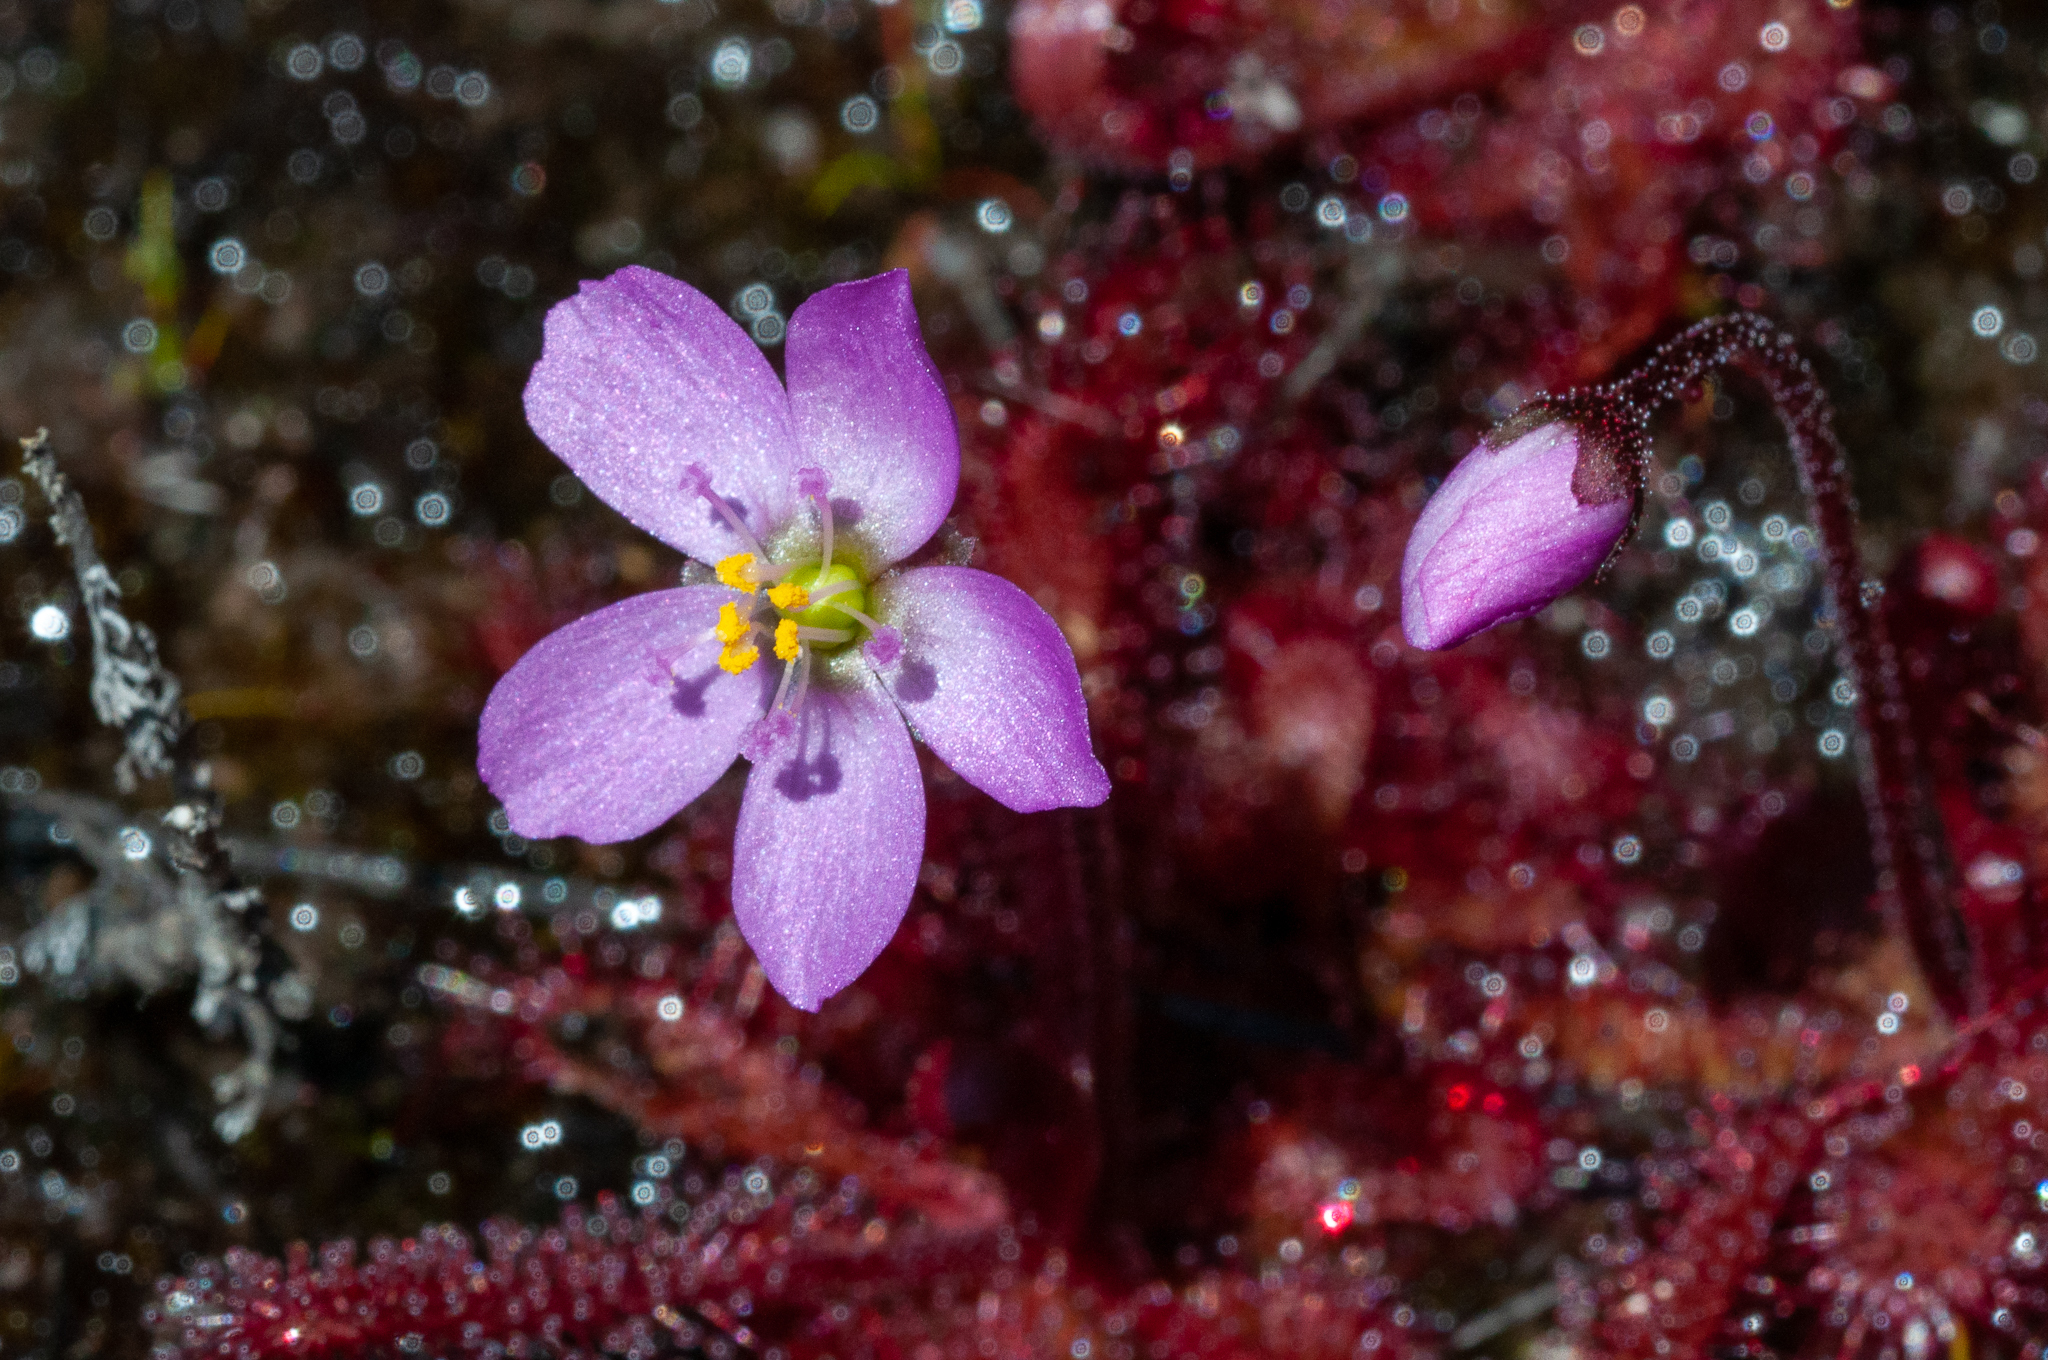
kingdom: Plantae
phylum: Tracheophyta
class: Magnoliopsida
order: Caryophyllales
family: Droseraceae
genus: Drosera
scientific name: Drosera trinervia
